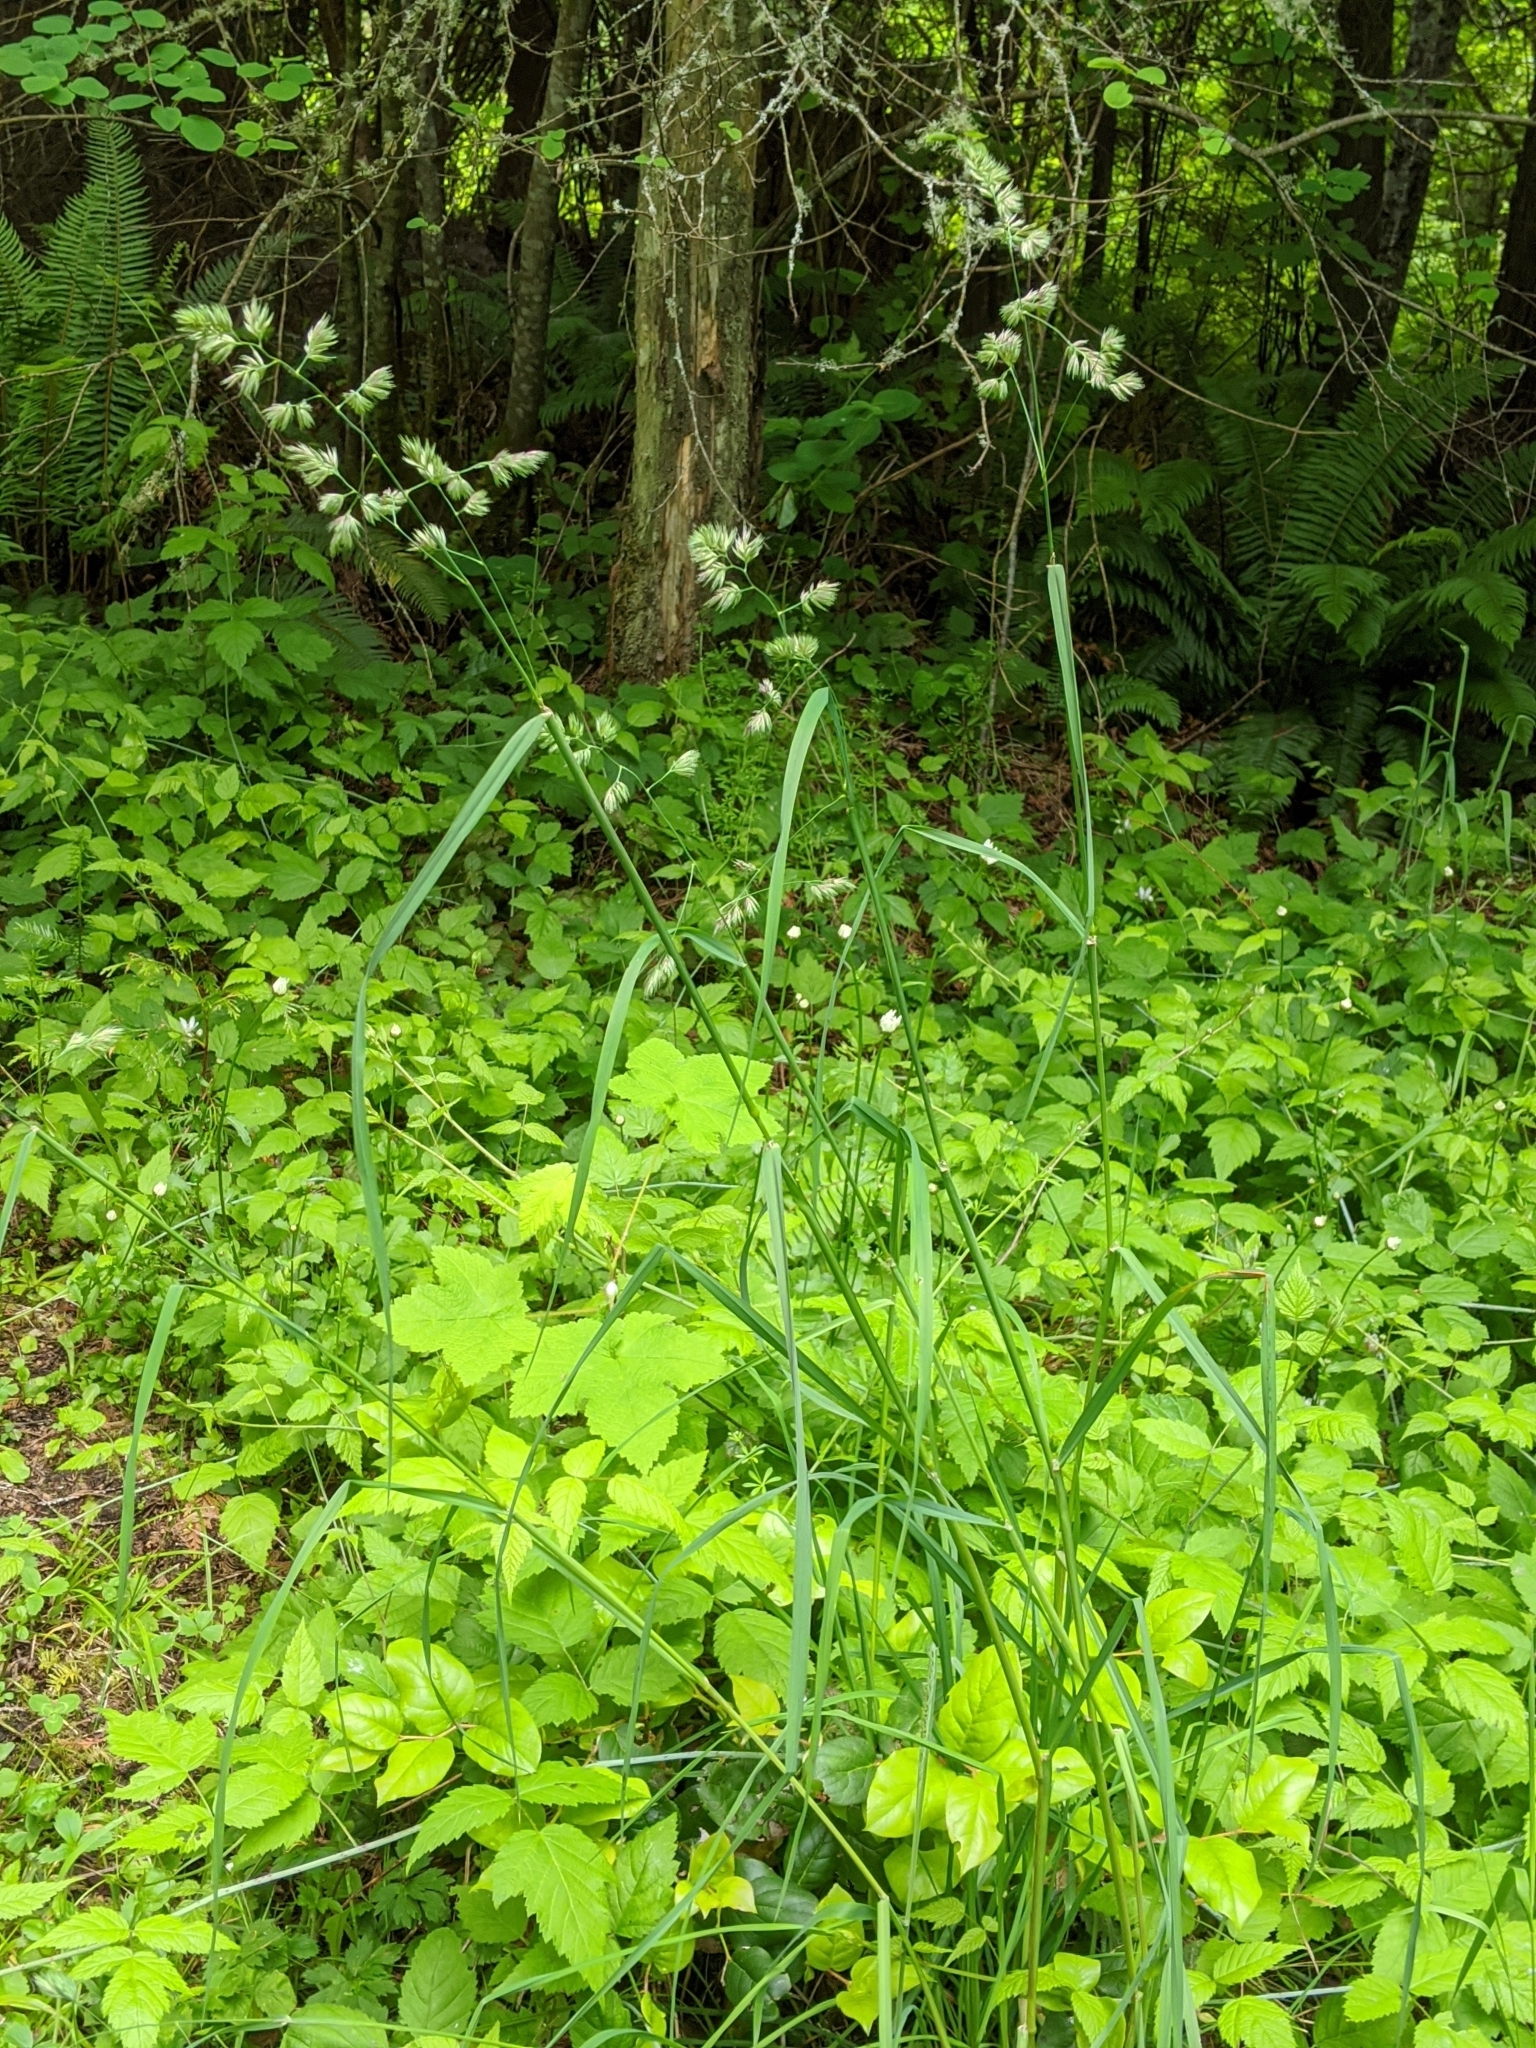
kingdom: Plantae
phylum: Tracheophyta
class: Liliopsida
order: Poales
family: Poaceae
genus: Dactylis
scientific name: Dactylis glomerata
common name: Orchardgrass
